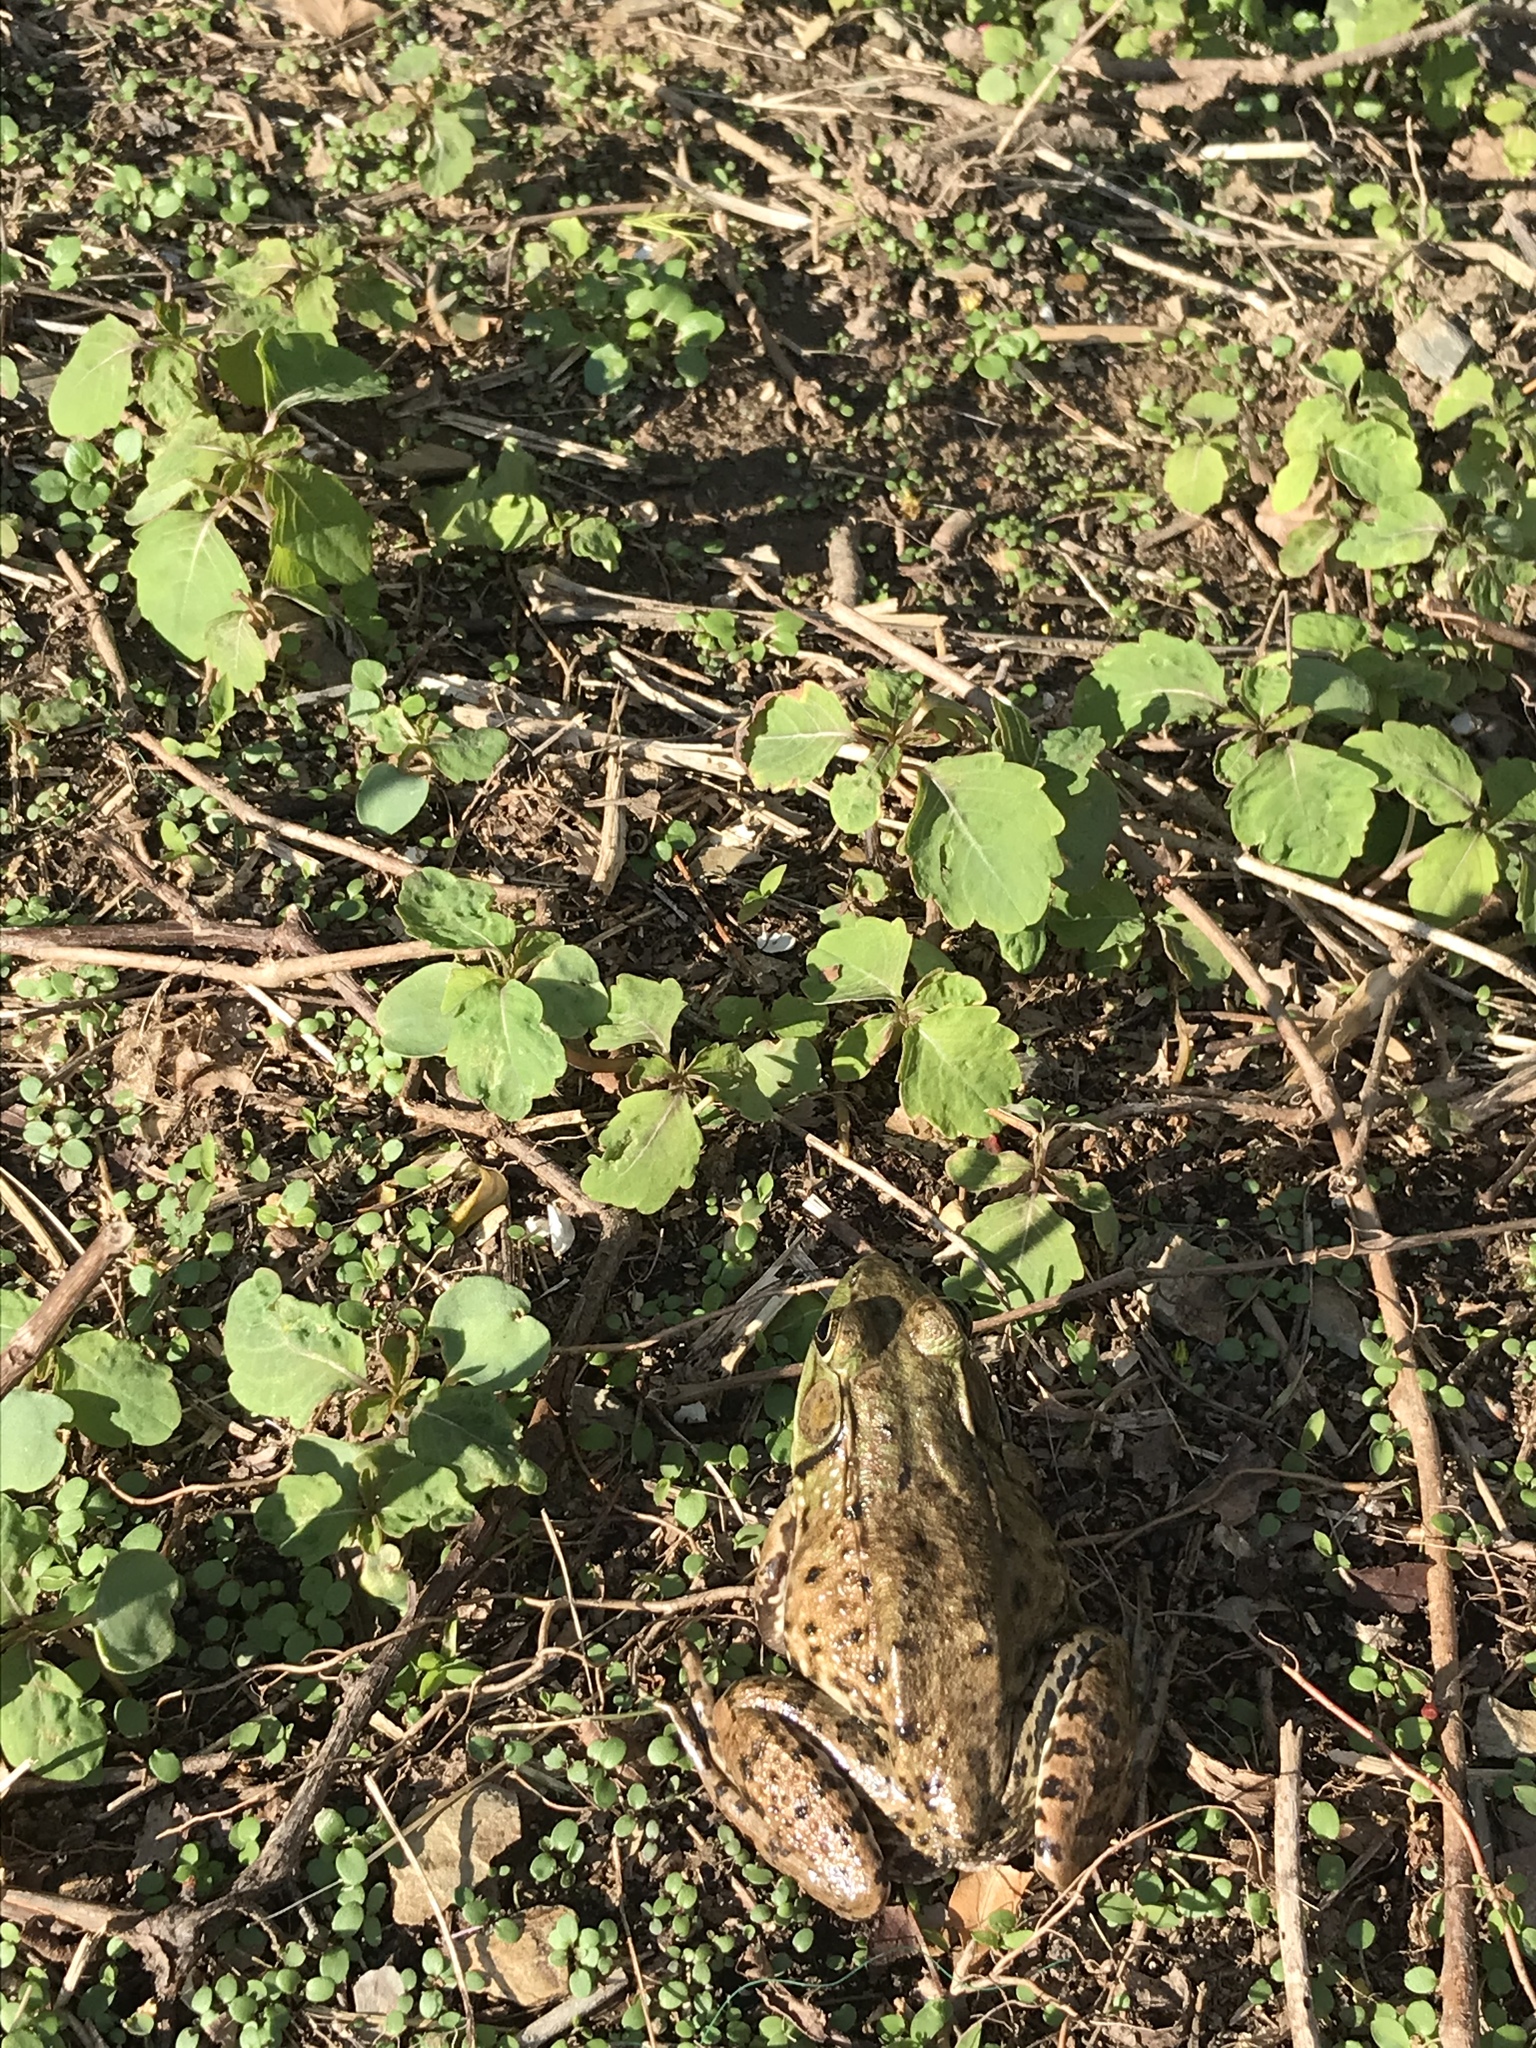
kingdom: Animalia
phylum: Chordata
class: Amphibia
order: Anura
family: Ranidae
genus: Lithobates
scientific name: Lithobates clamitans
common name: Green frog
